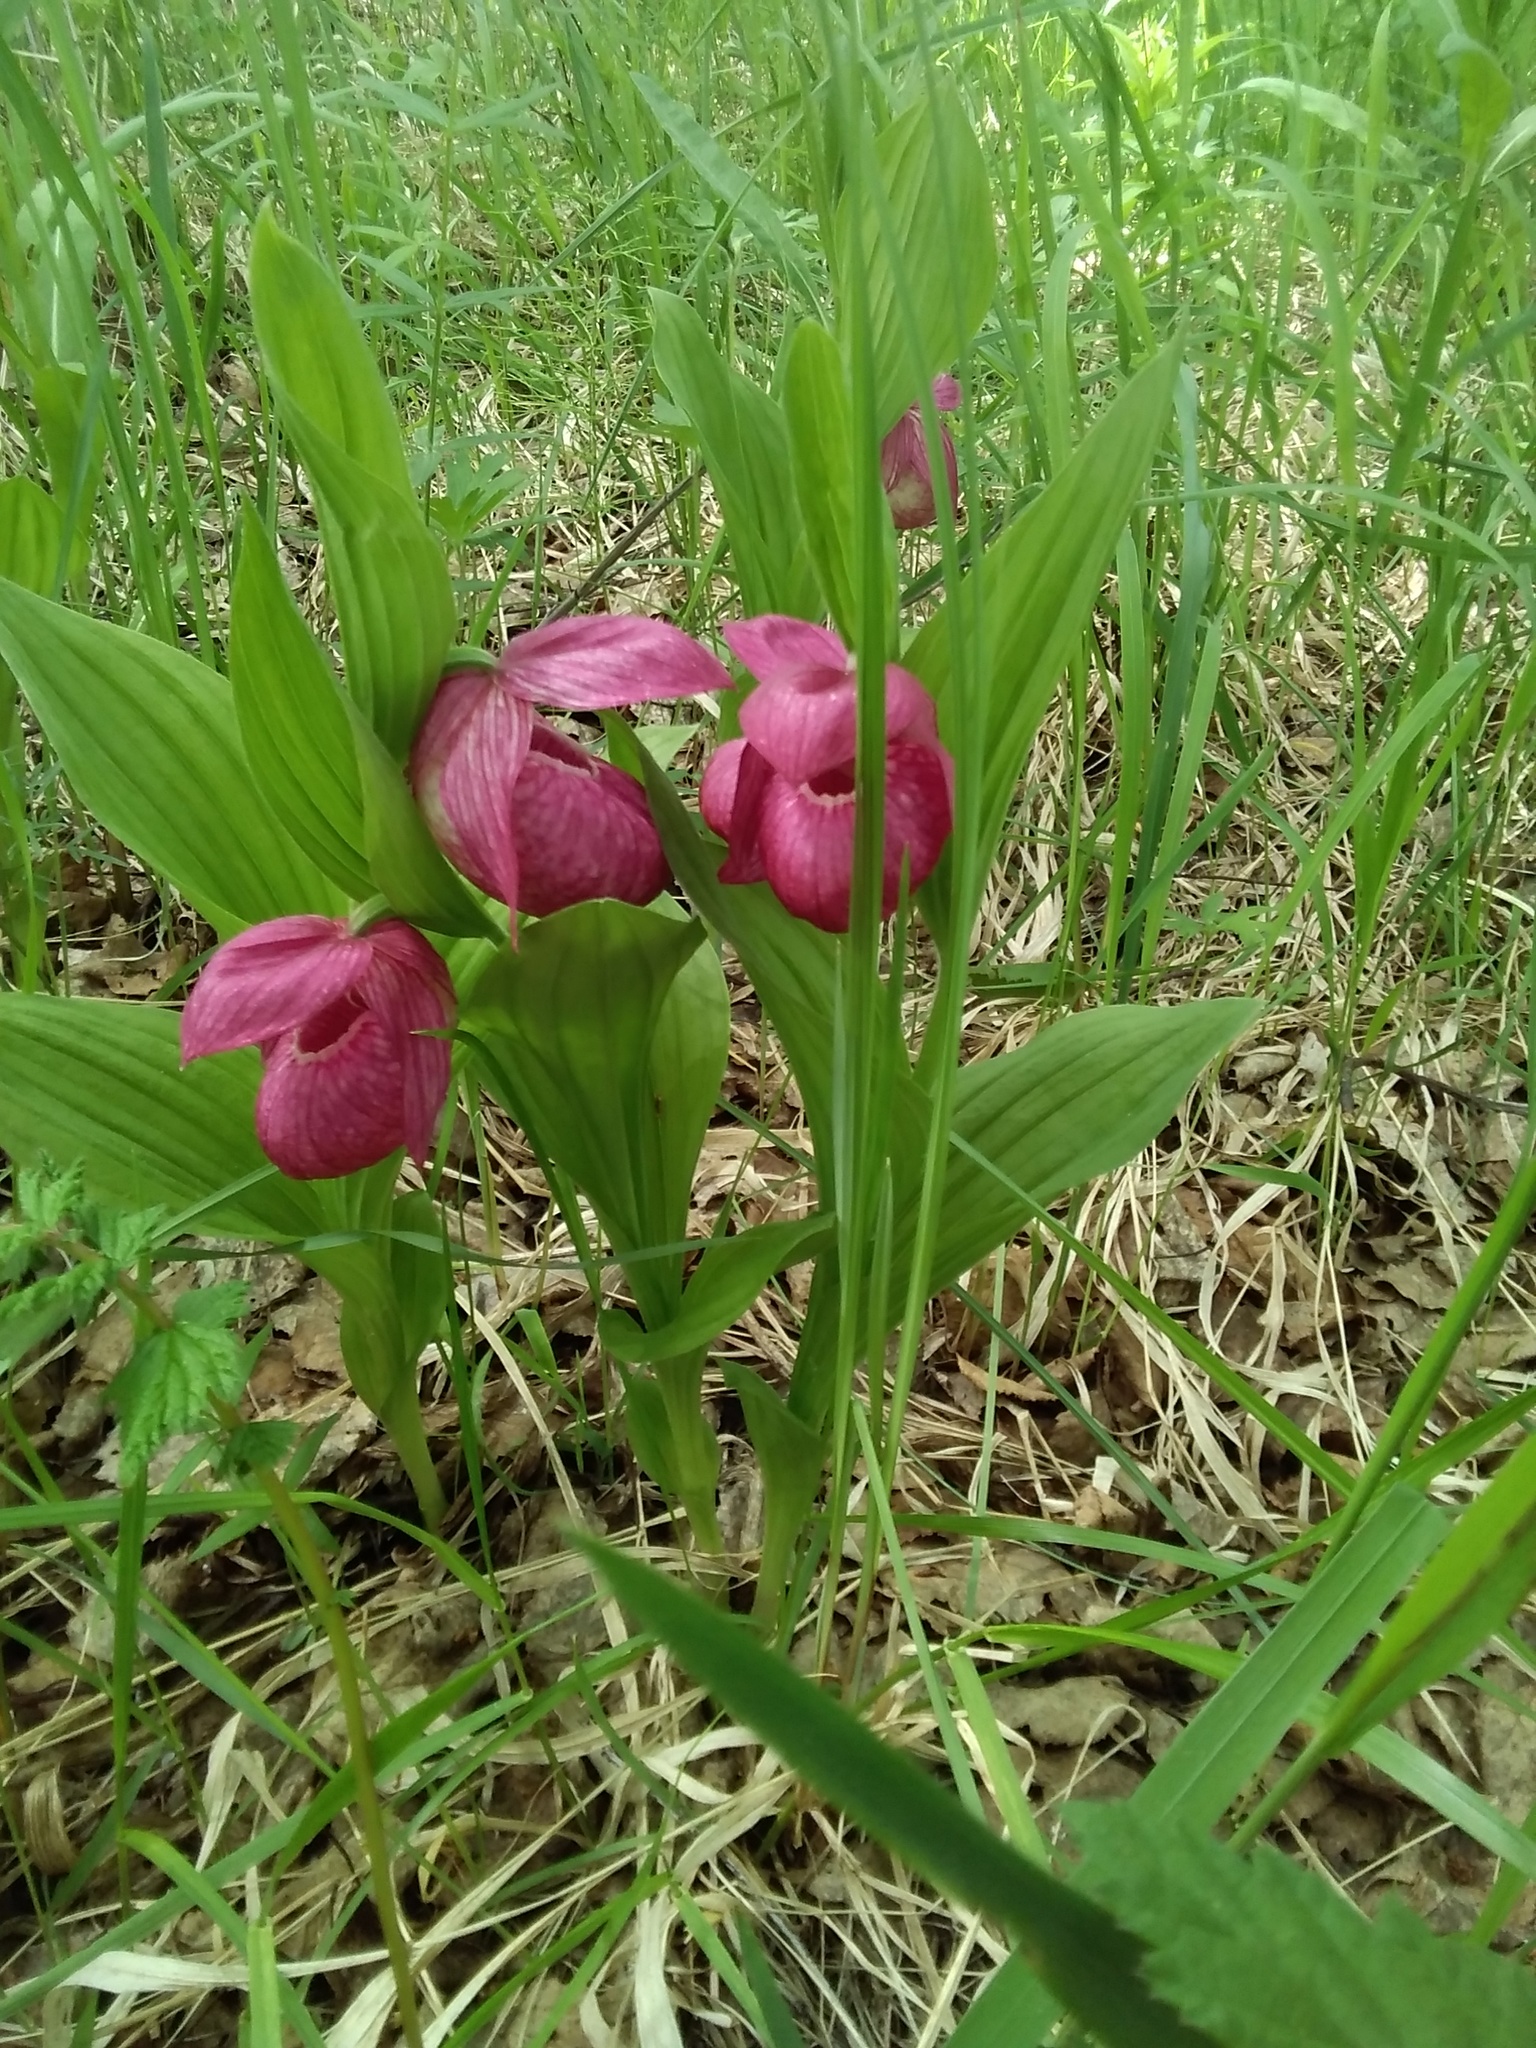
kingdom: Plantae
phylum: Tracheophyta
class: Liliopsida
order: Asparagales
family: Orchidaceae
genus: Cypripedium
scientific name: Cypripedium macranthos
